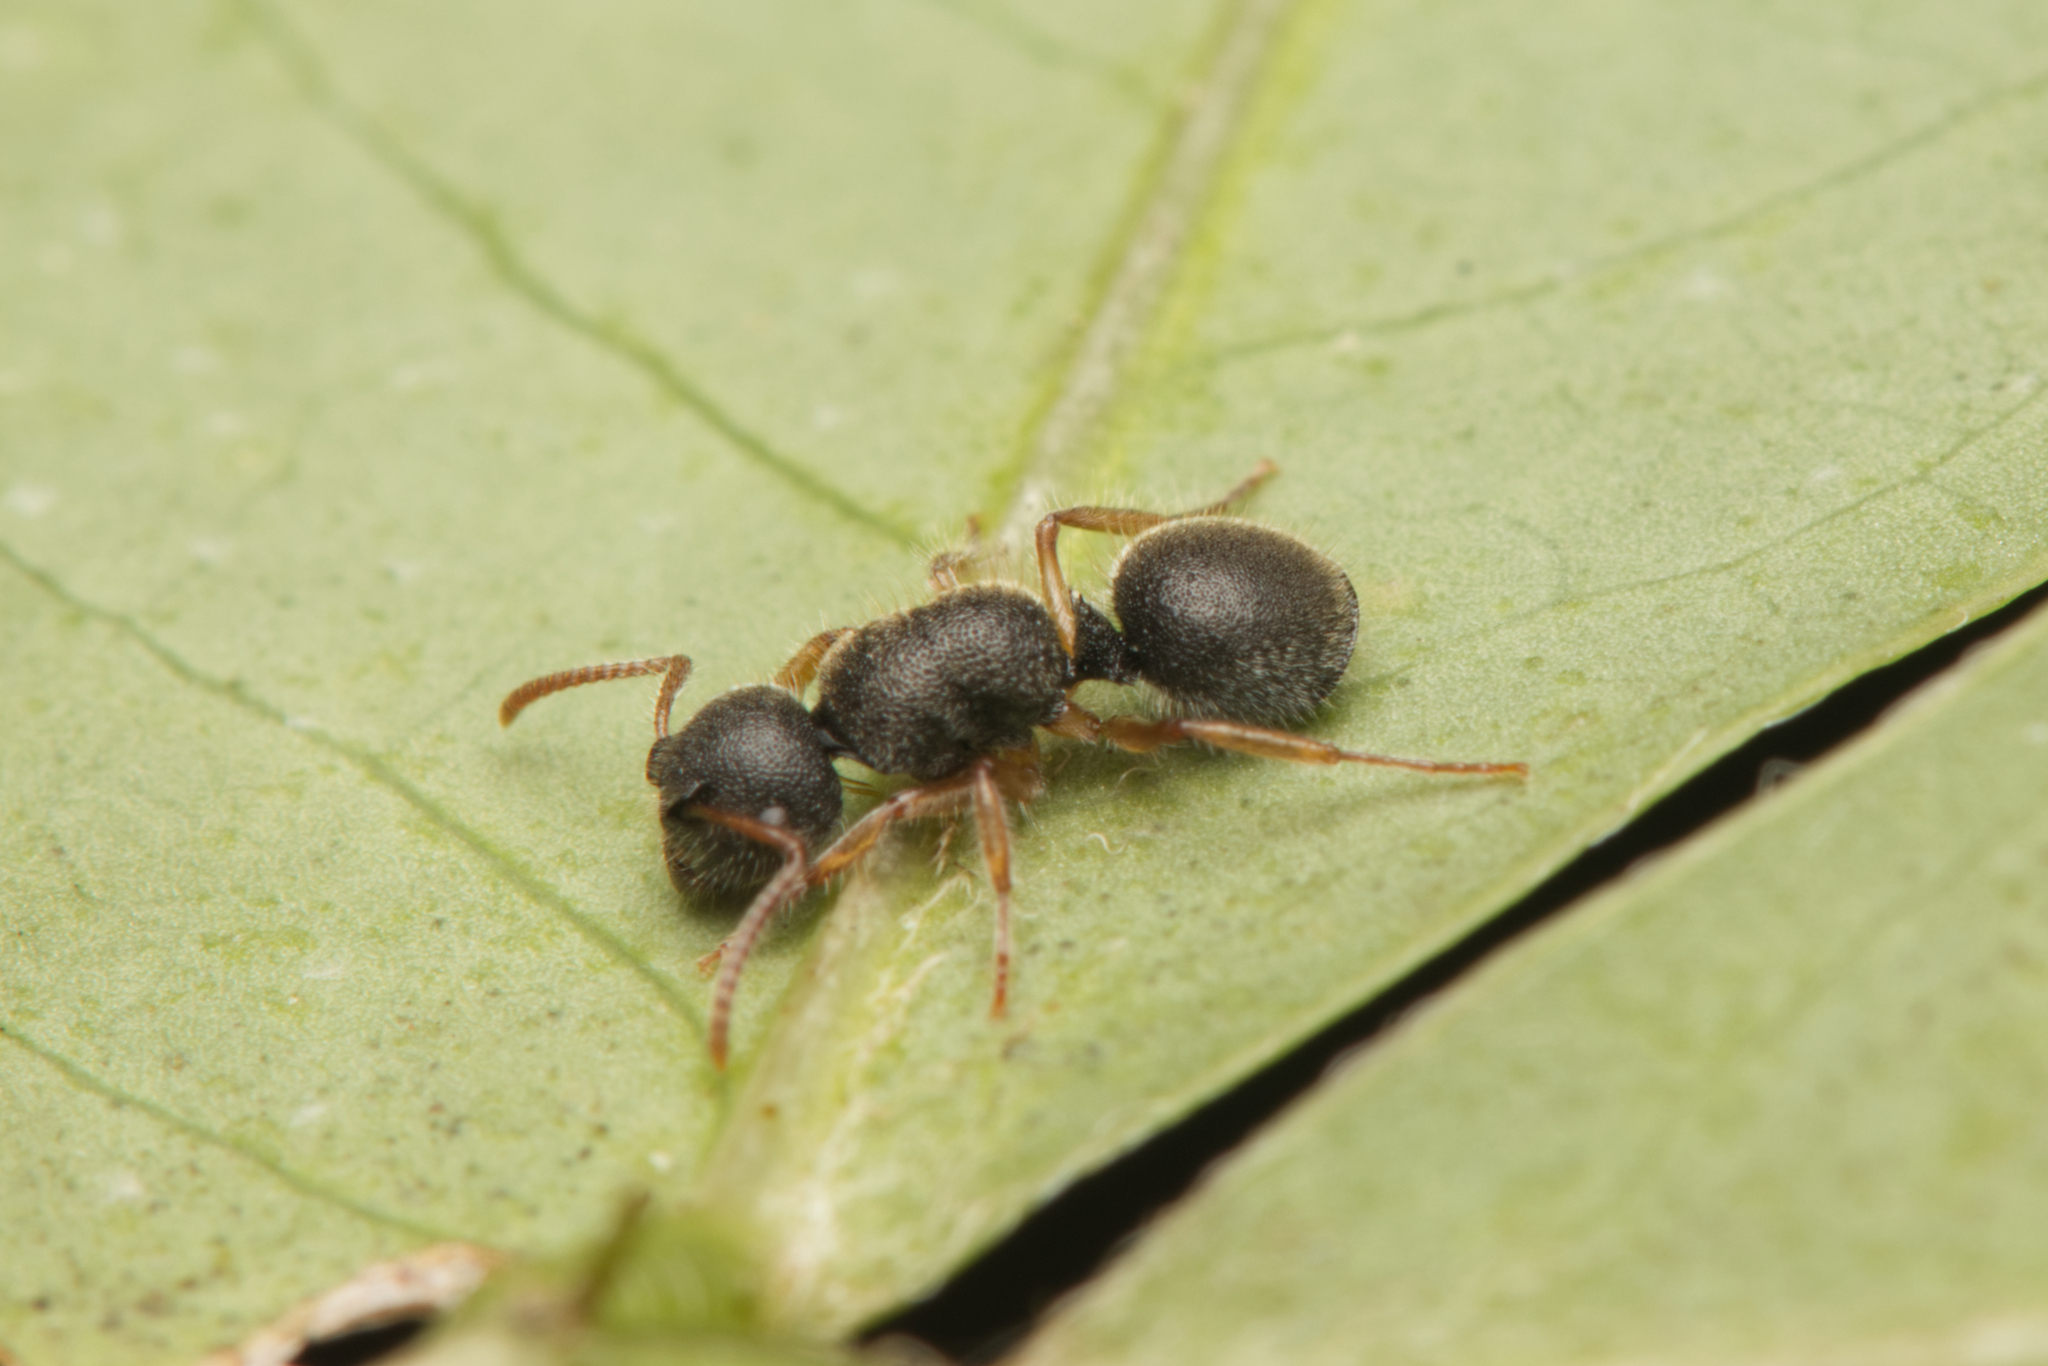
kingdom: Animalia
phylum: Arthropoda
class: Insecta
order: Hymenoptera
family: Formicidae
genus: Echinopla
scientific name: Echinopla turneri
